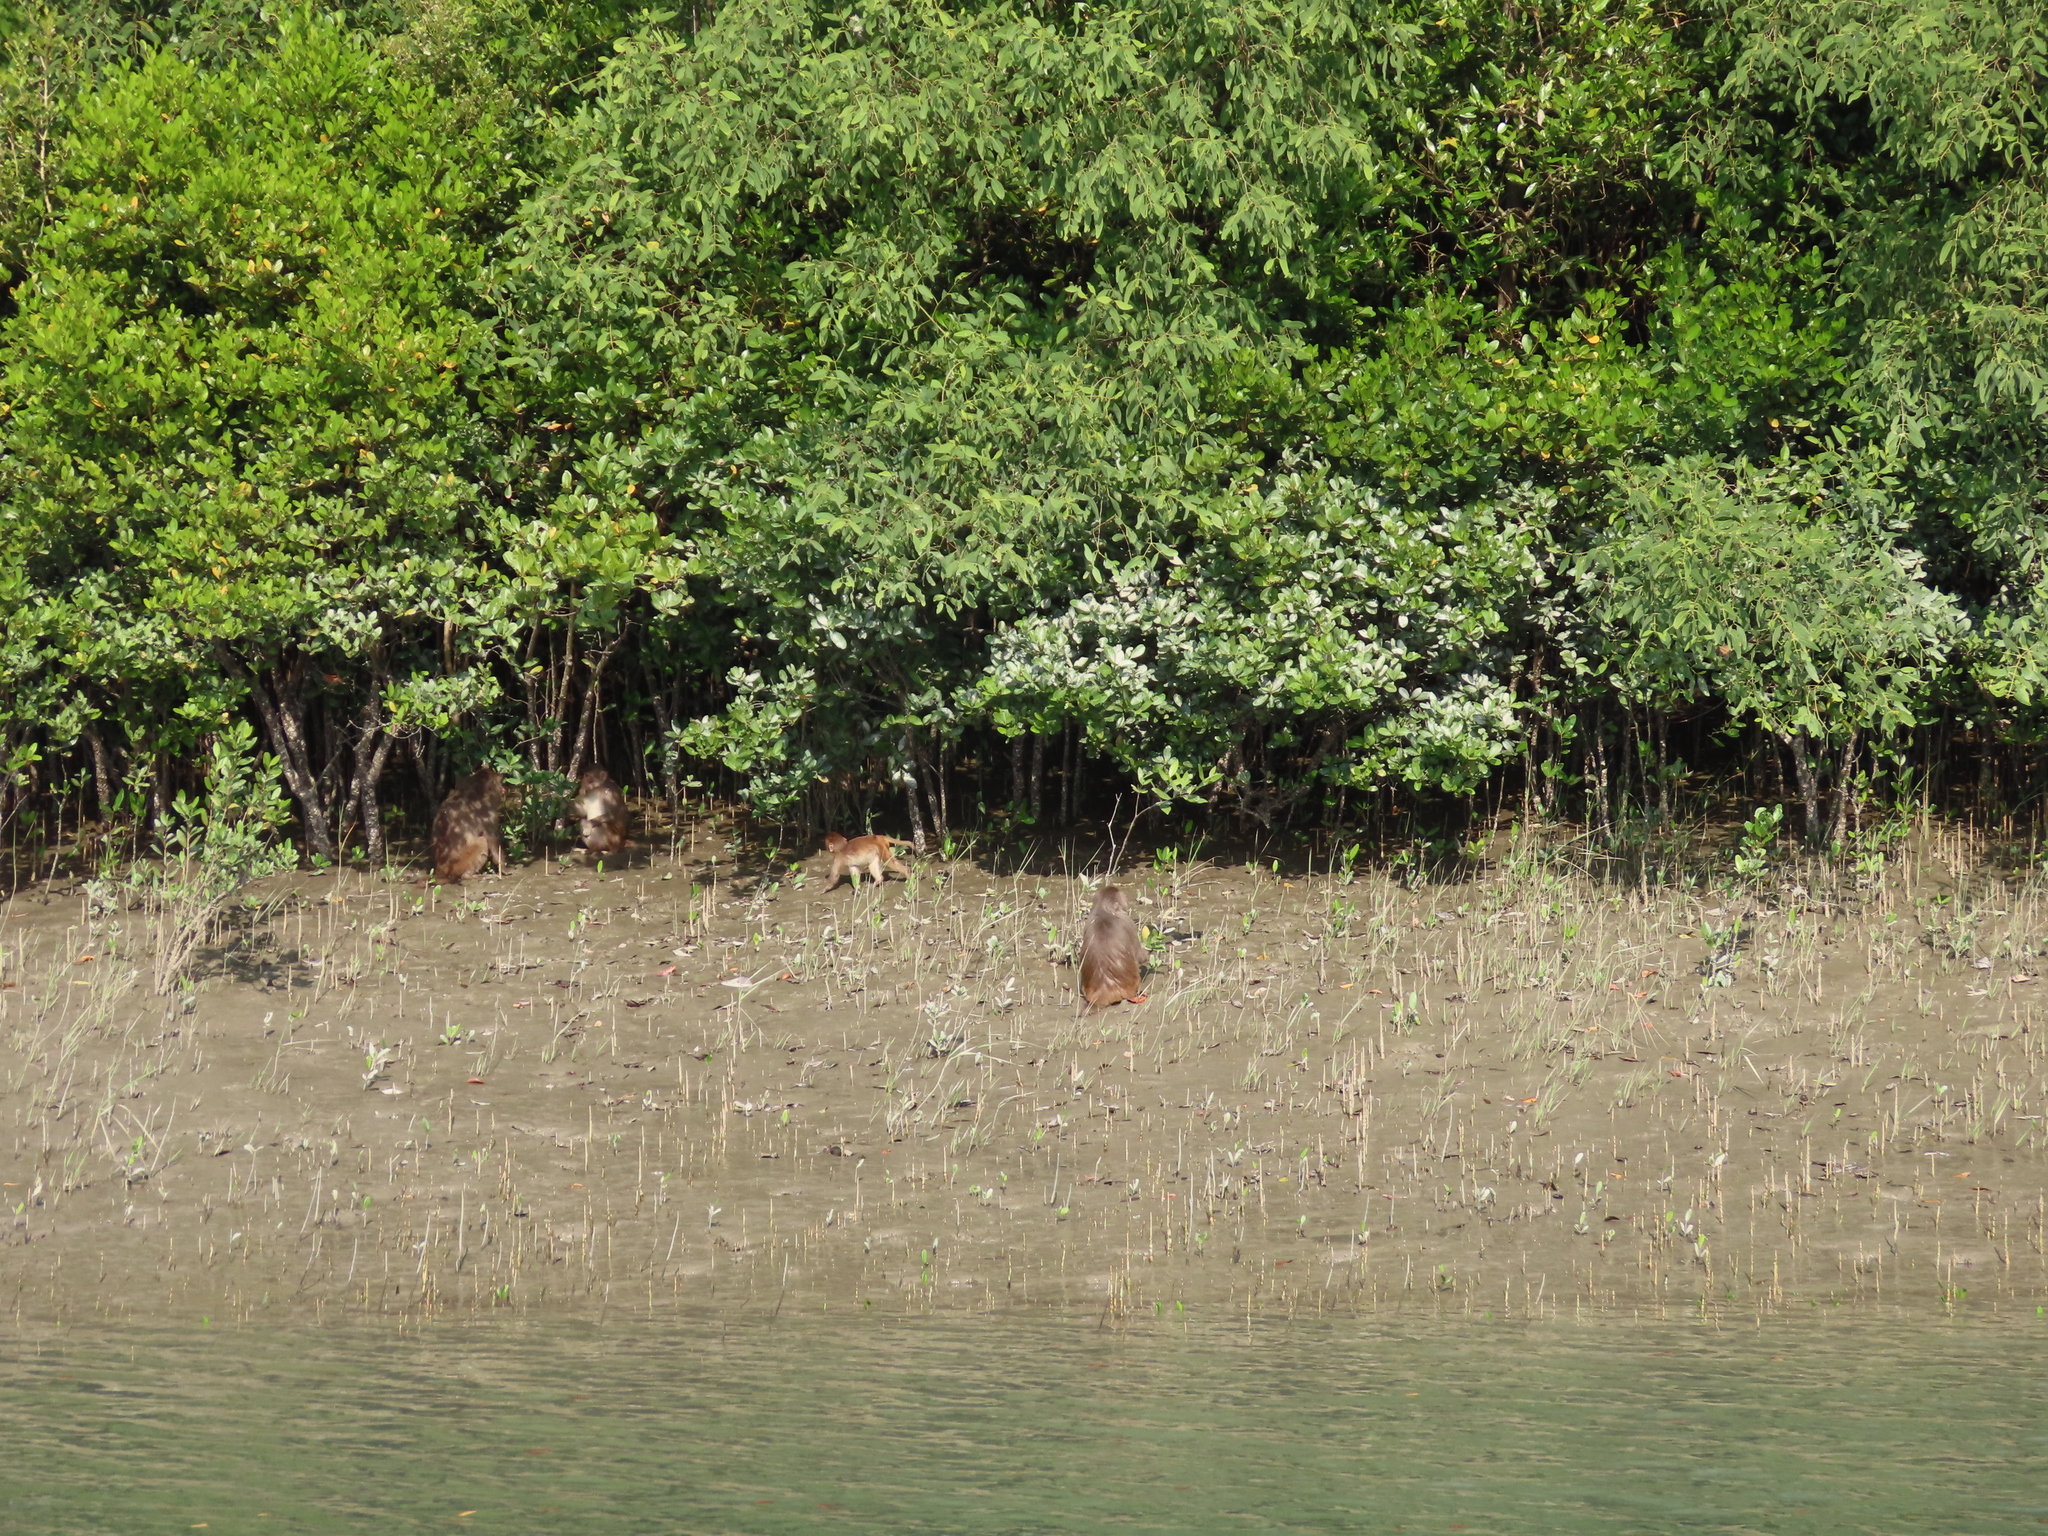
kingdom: Animalia
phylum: Chordata
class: Mammalia
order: Primates
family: Cercopithecidae
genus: Macaca
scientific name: Macaca mulatta
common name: Rhesus monkey
